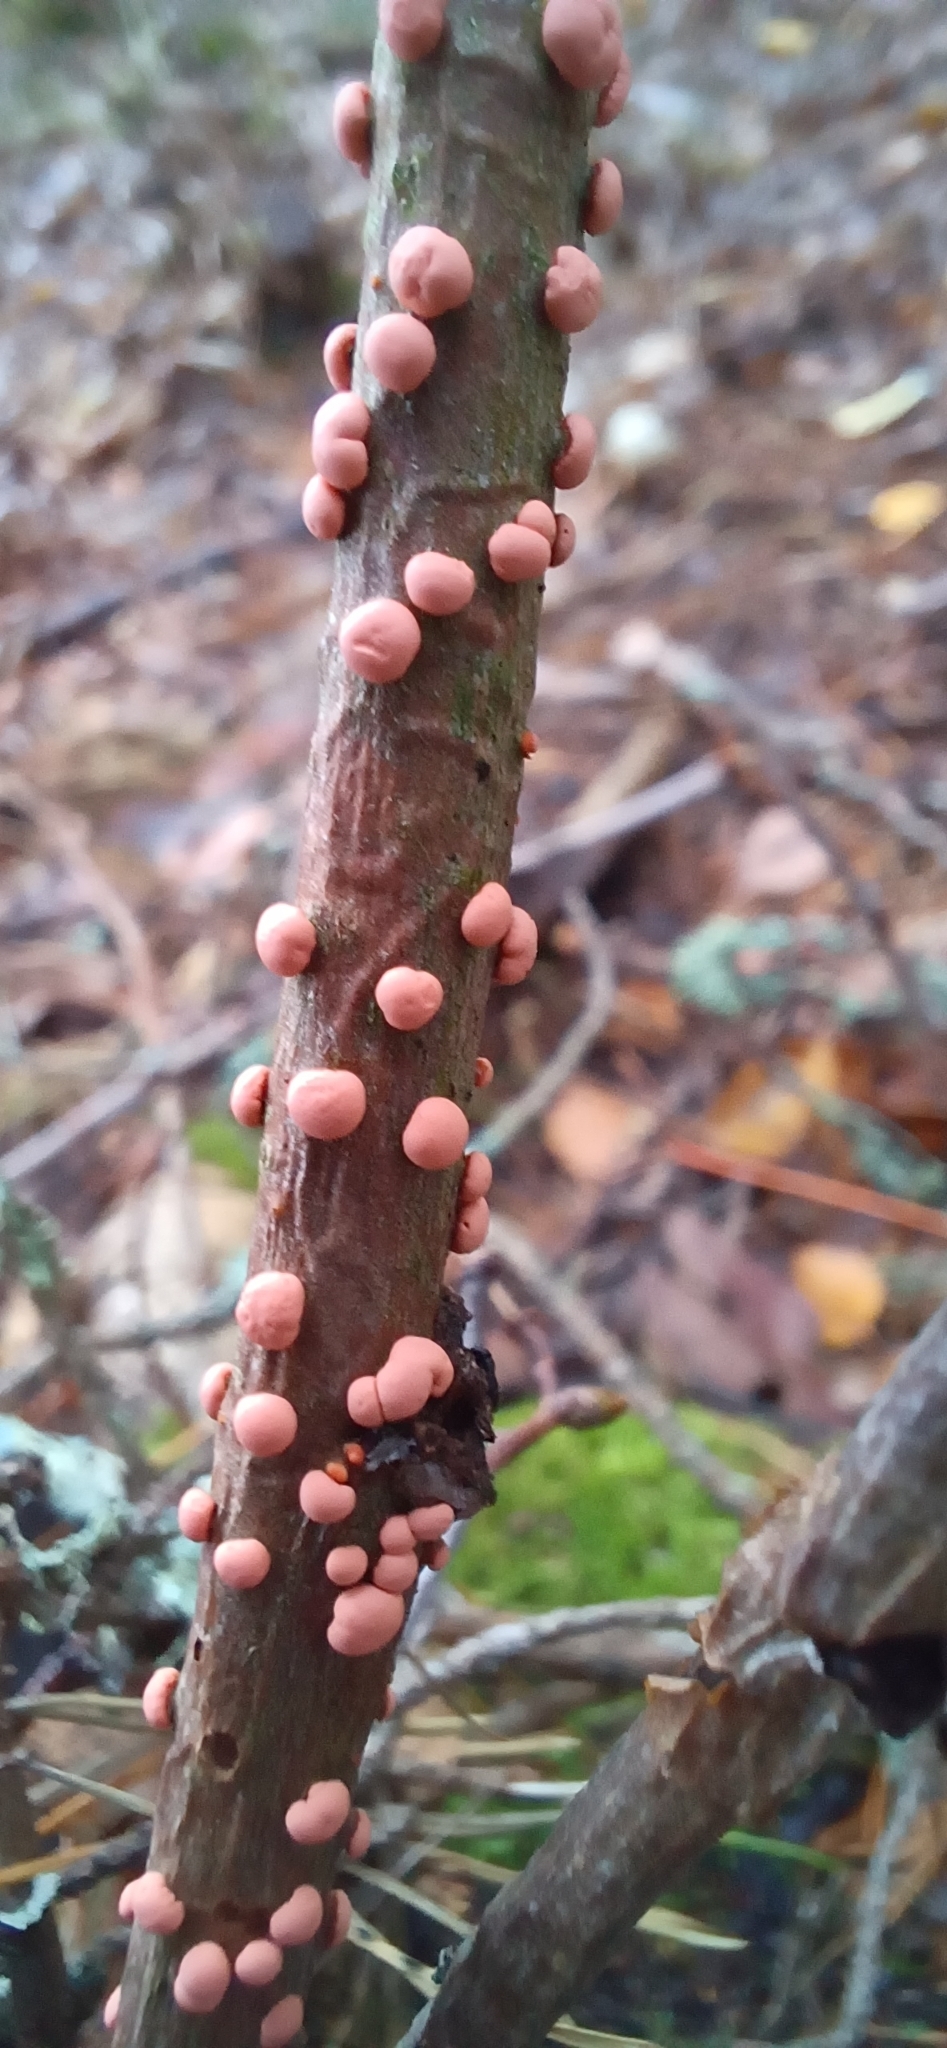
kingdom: Fungi
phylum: Ascomycota
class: Sordariomycetes
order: Hypocreales
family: Nectriaceae
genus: Nectria
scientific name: Nectria cinnabarina
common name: Coral spot
